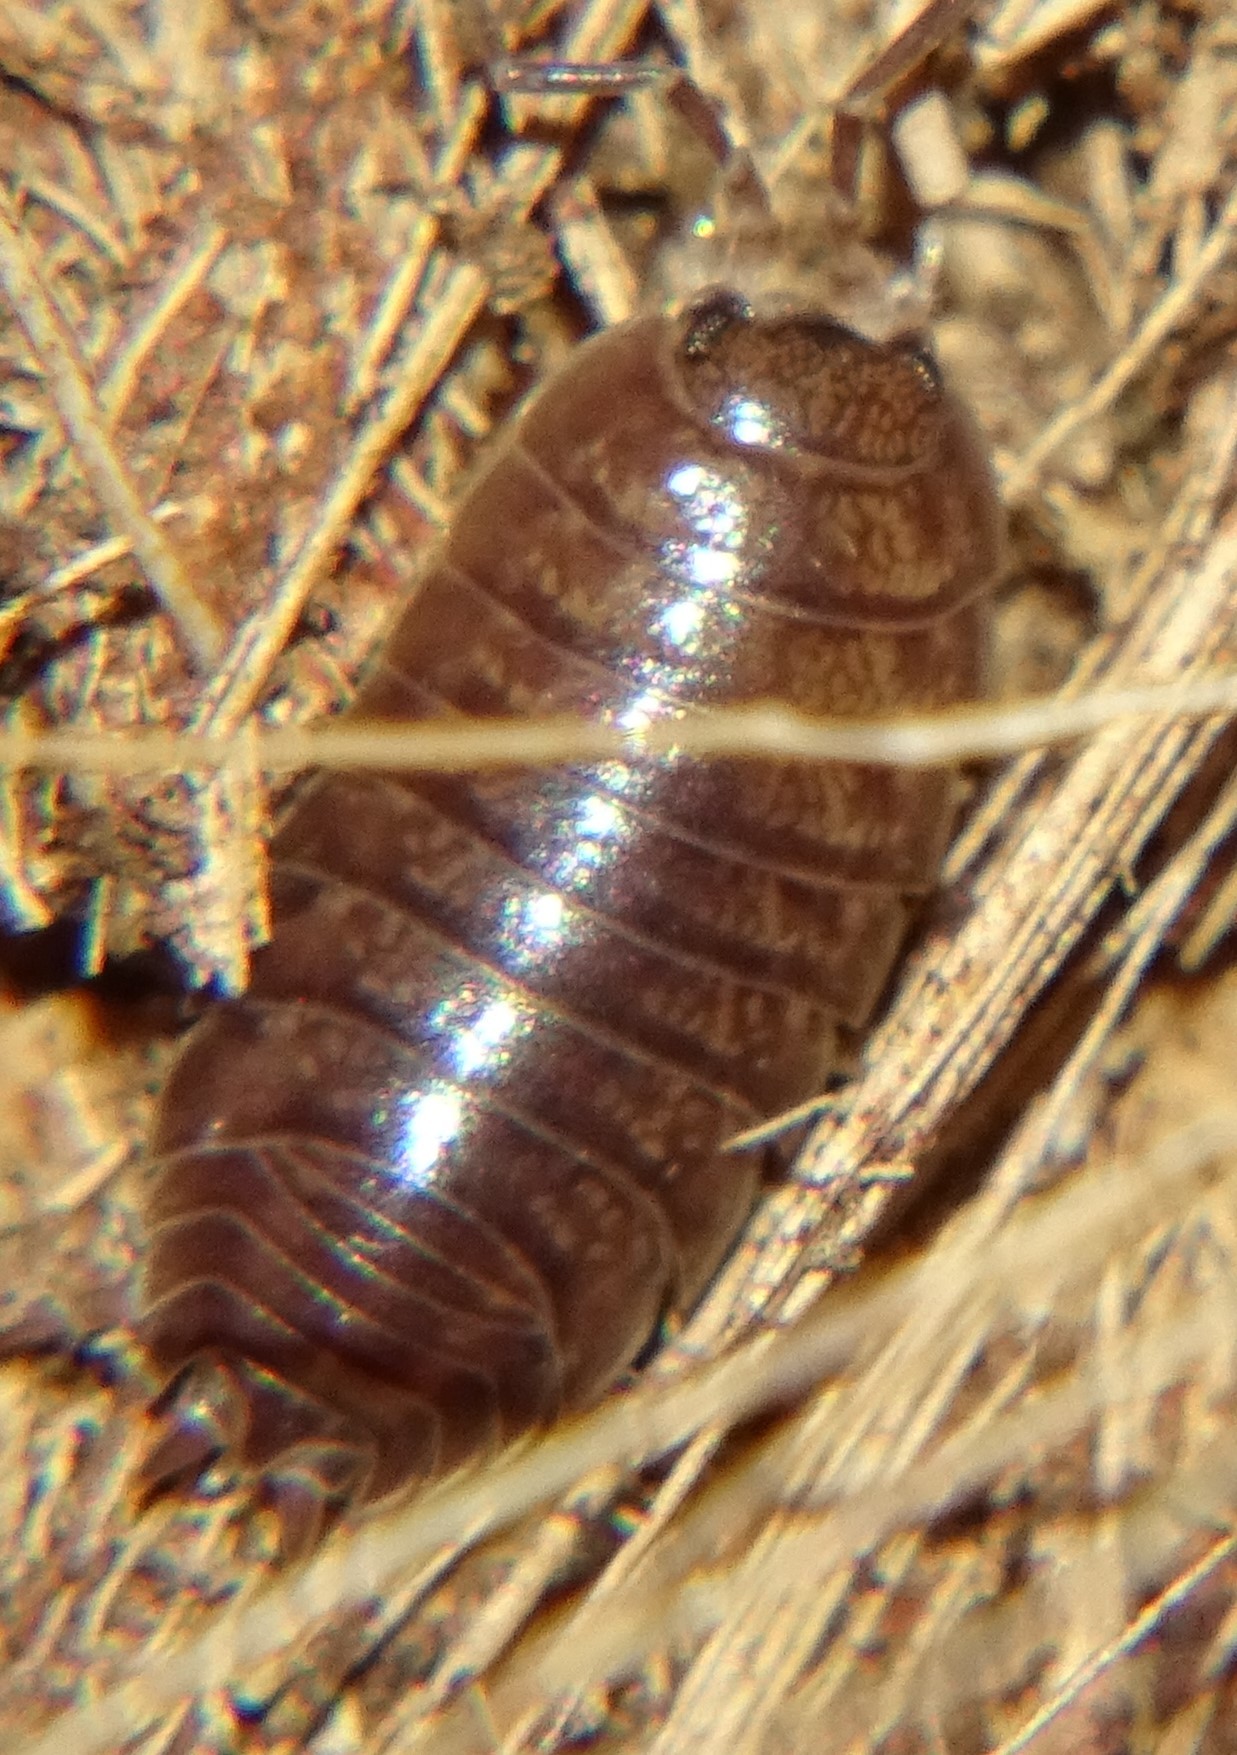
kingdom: Animalia
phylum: Arthropoda
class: Malacostraca
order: Isopoda
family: Porcellionidae
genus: Porcellio
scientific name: Porcellio laevis
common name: Swift woodlouse
